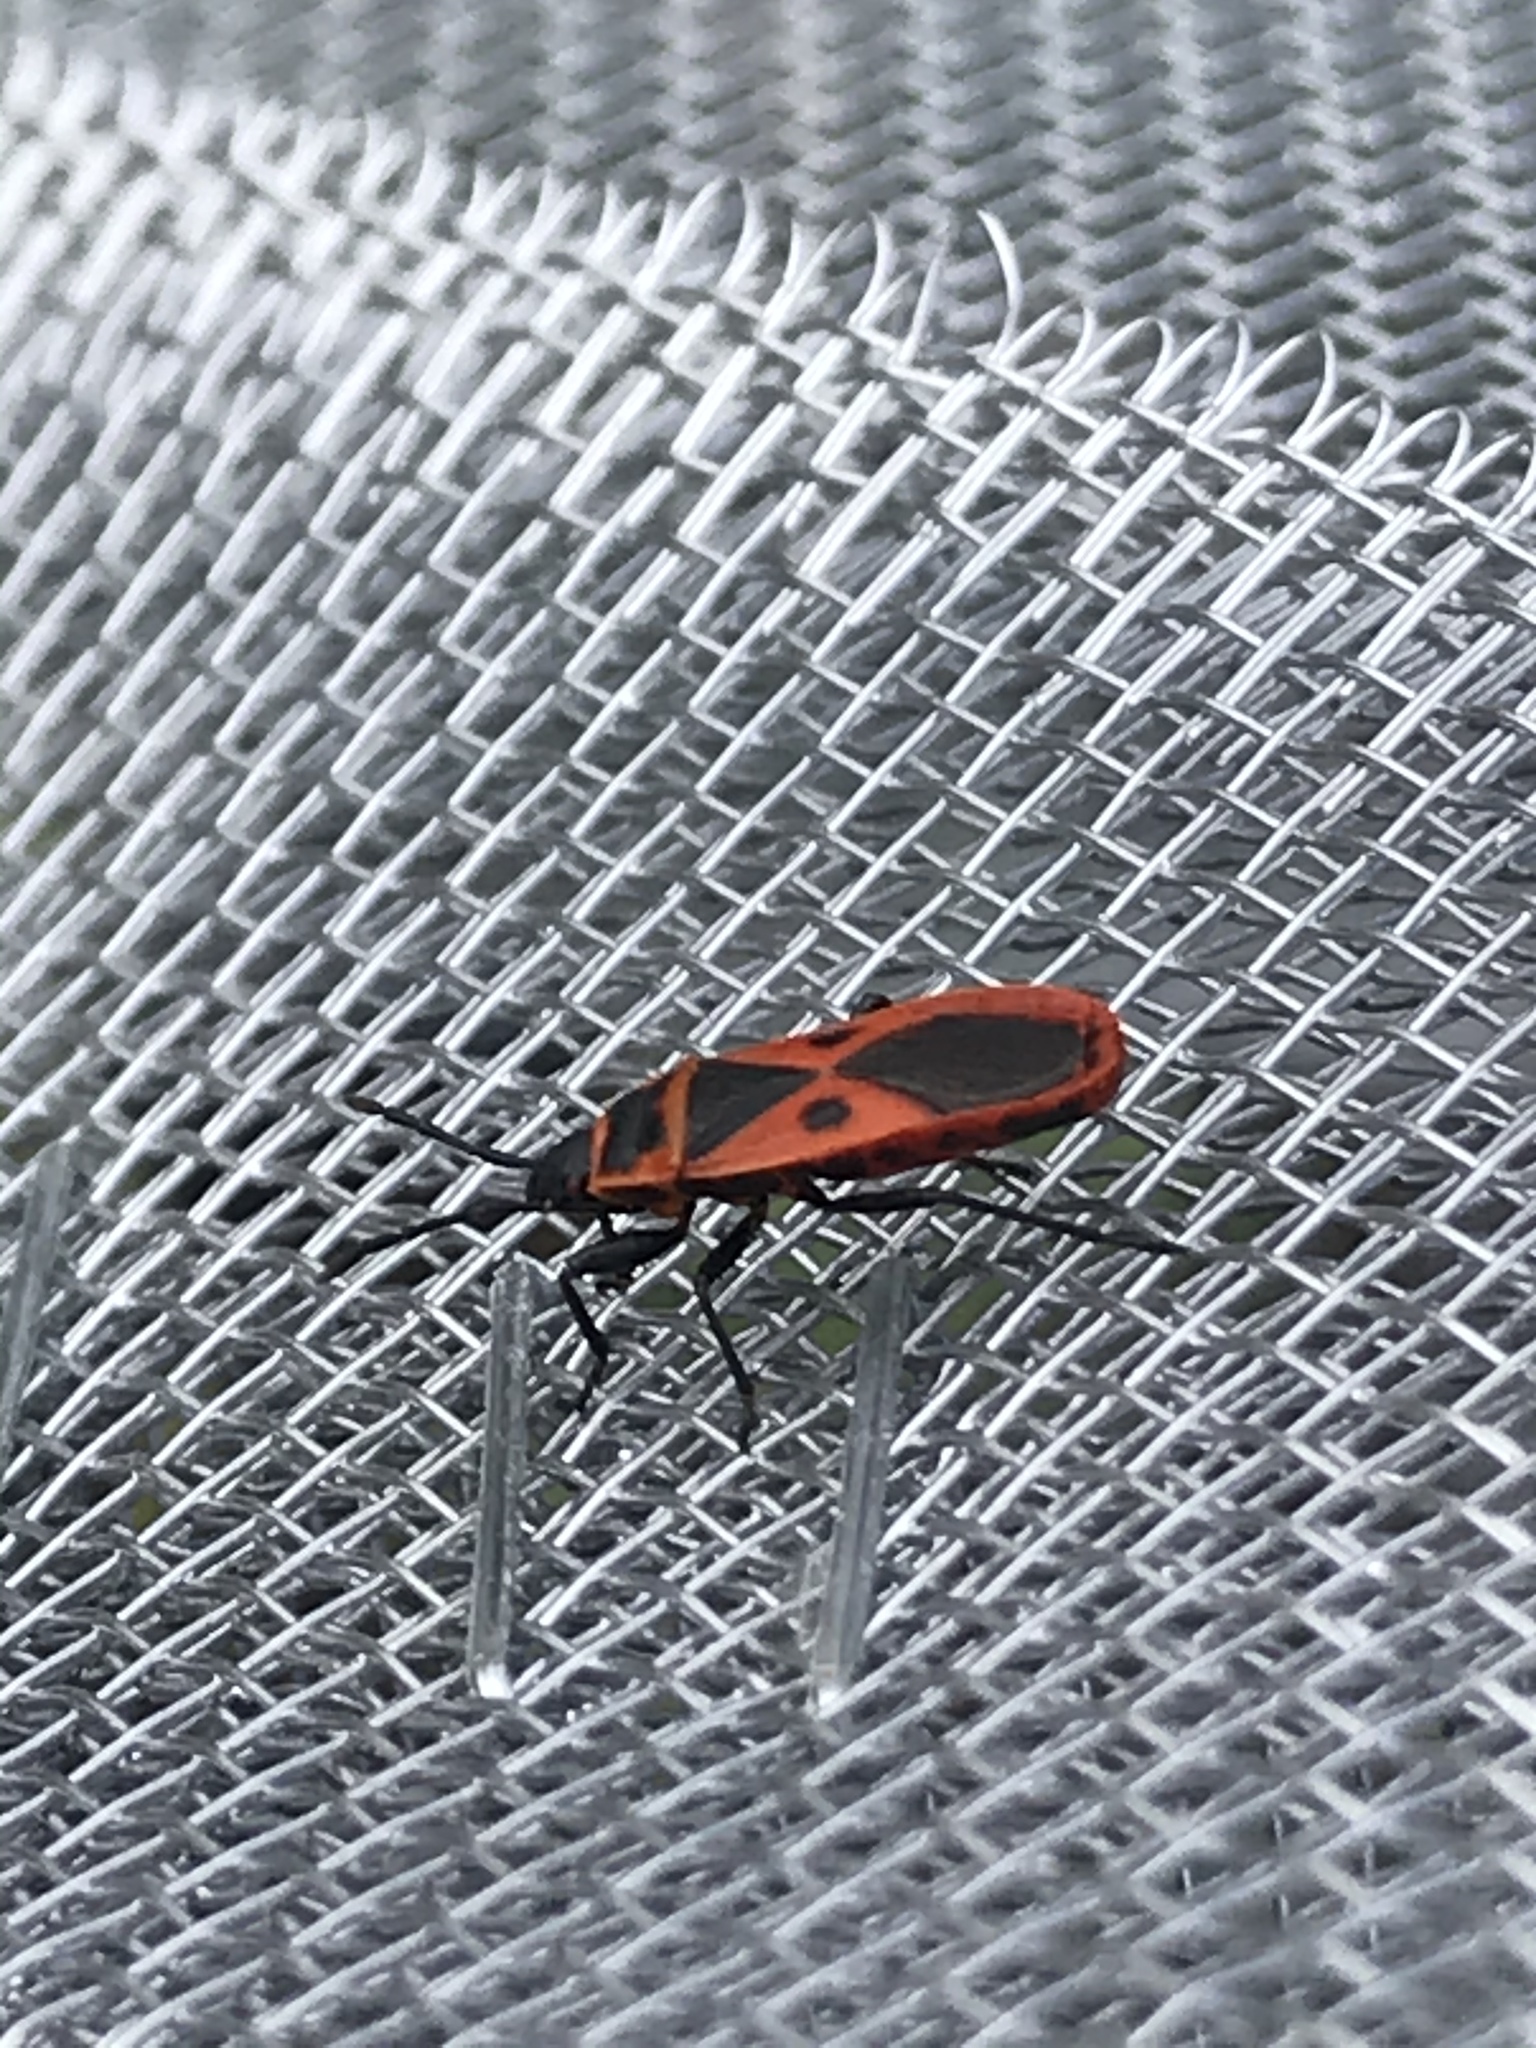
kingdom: Animalia
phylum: Arthropoda
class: Insecta
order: Hemiptera
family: Pyrrhocoridae
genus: Scantius
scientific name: Scantius aegyptius
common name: Red bug
